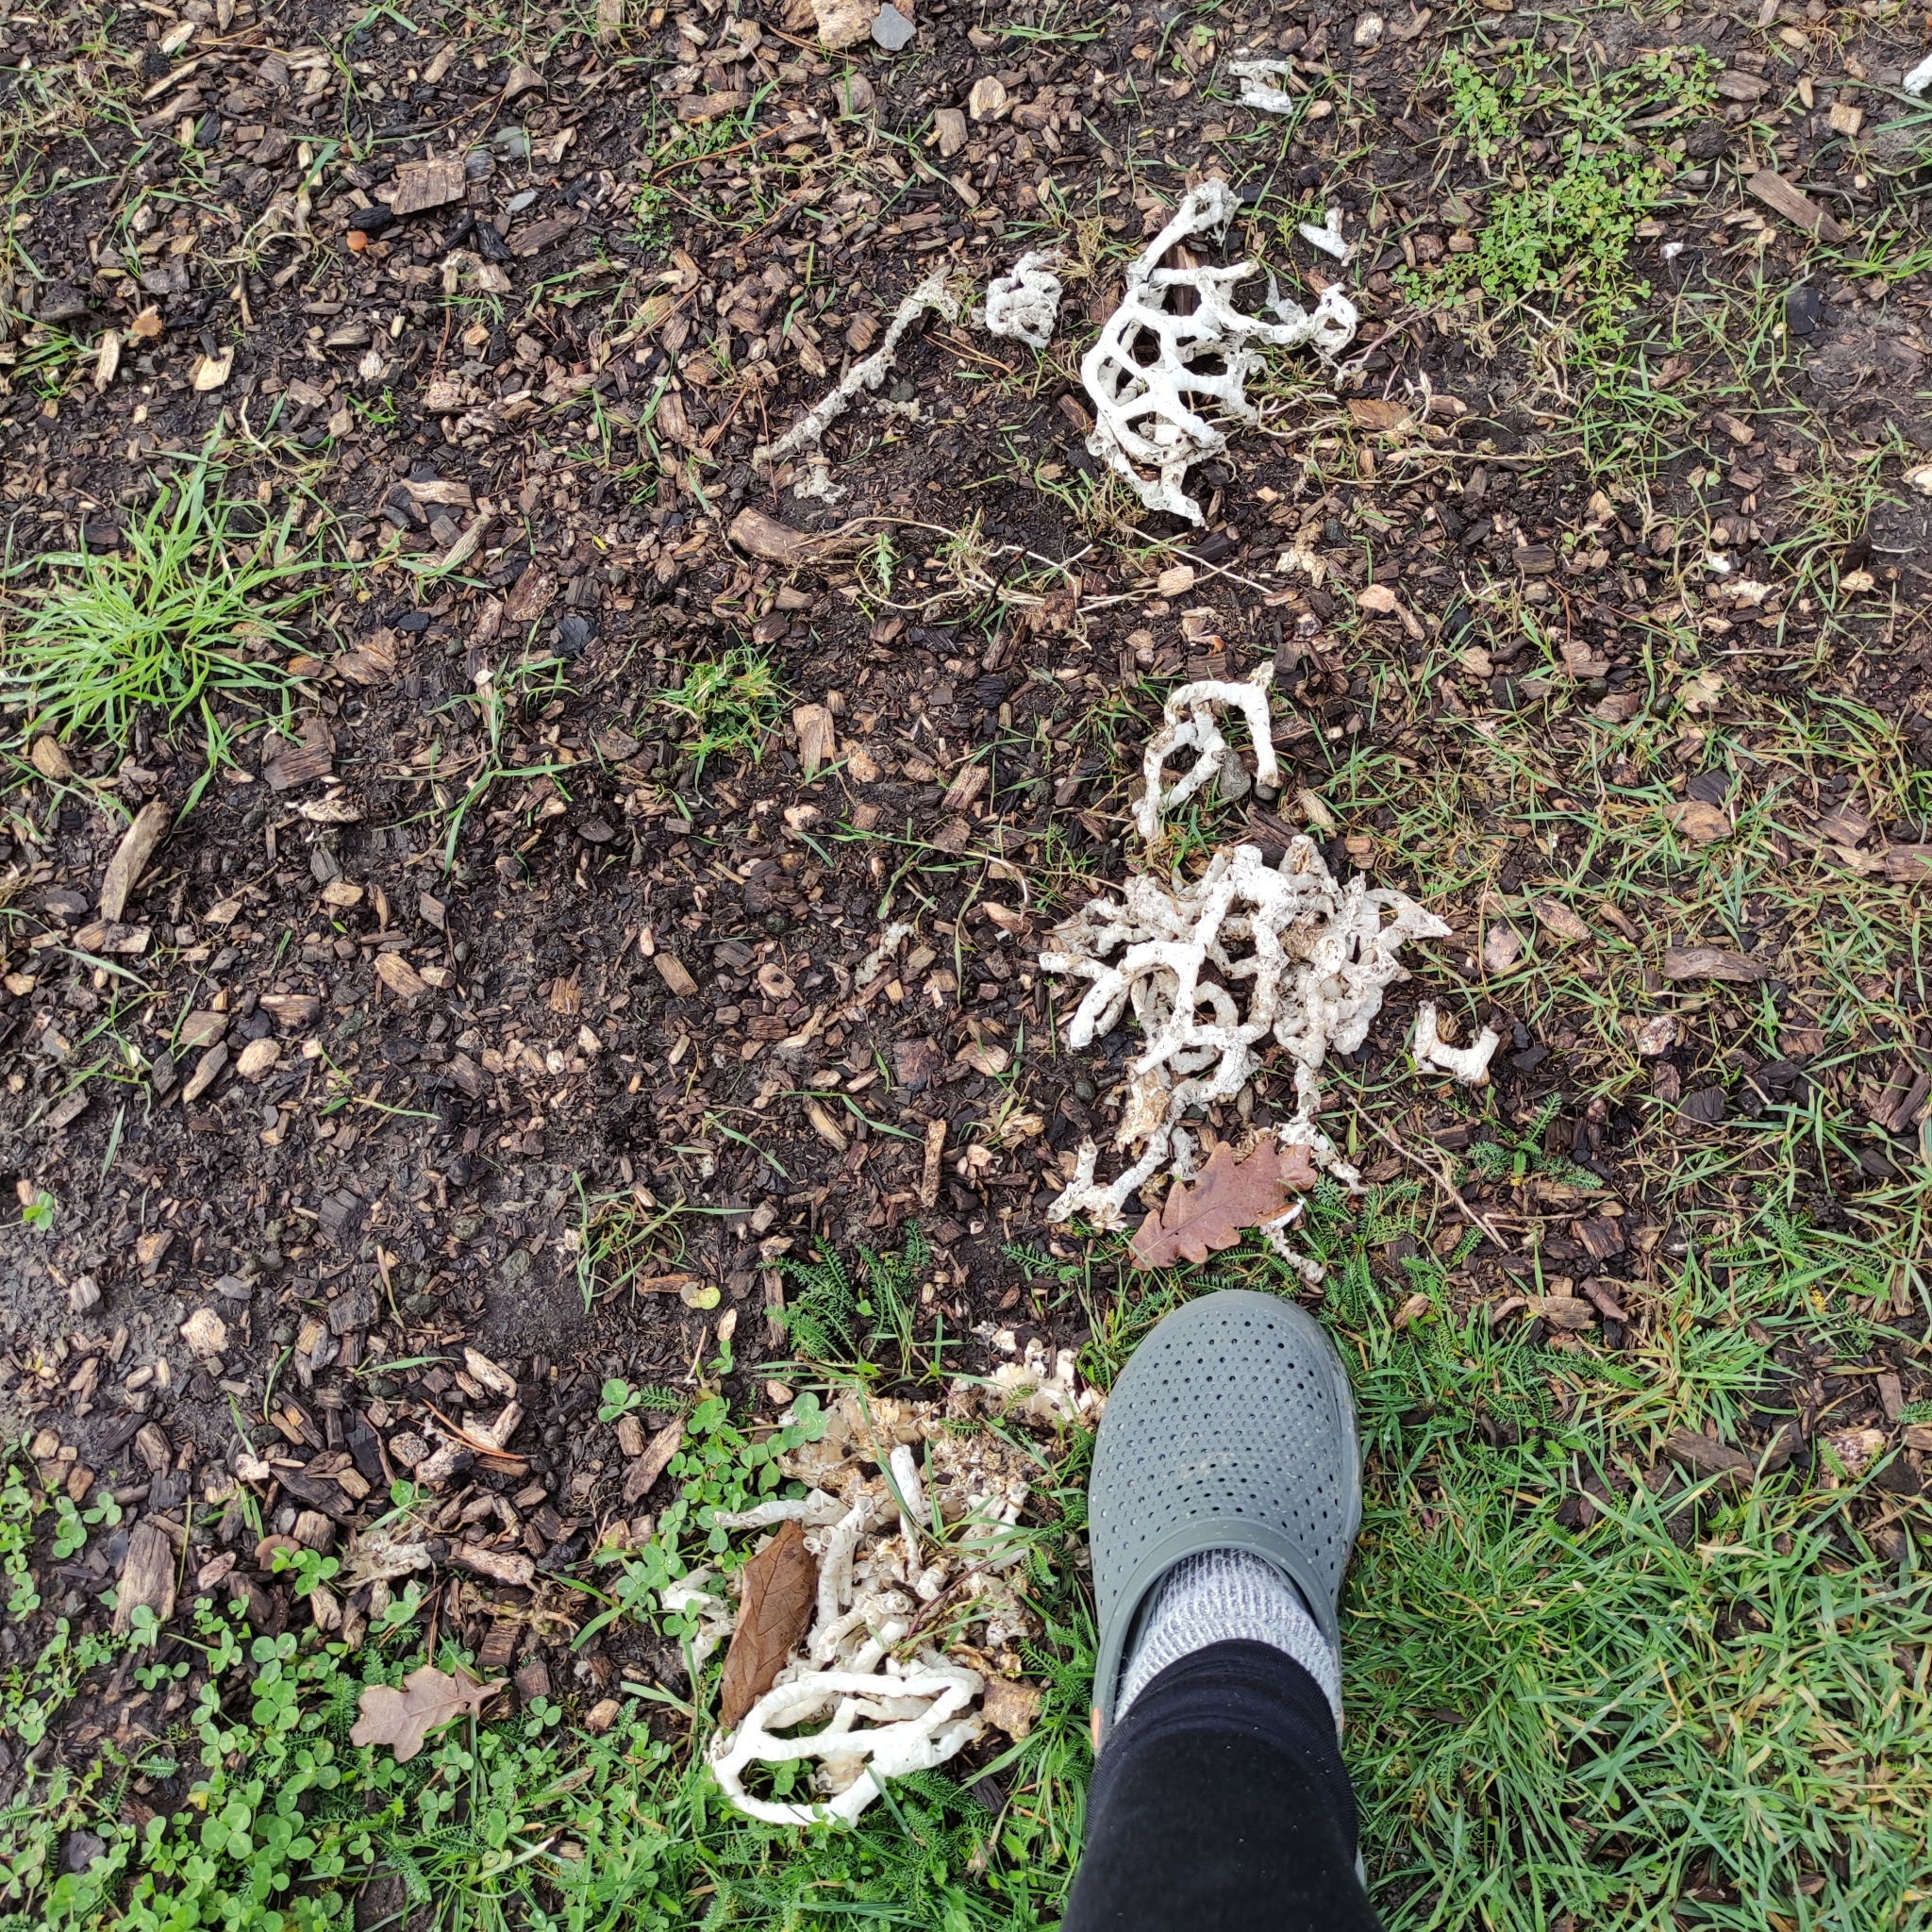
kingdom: Fungi
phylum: Basidiomycota
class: Agaricomycetes
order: Phallales
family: Phallaceae
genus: Ileodictyon
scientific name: Ileodictyon cibarium
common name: Basket fungus
